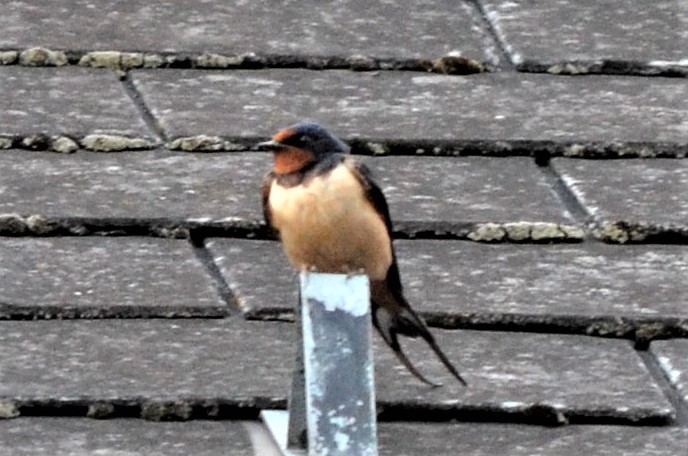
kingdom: Animalia
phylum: Chordata
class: Aves
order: Passeriformes
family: Hirundinidae
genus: Hirundo
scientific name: Hirundo rustica
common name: Barn swallow
